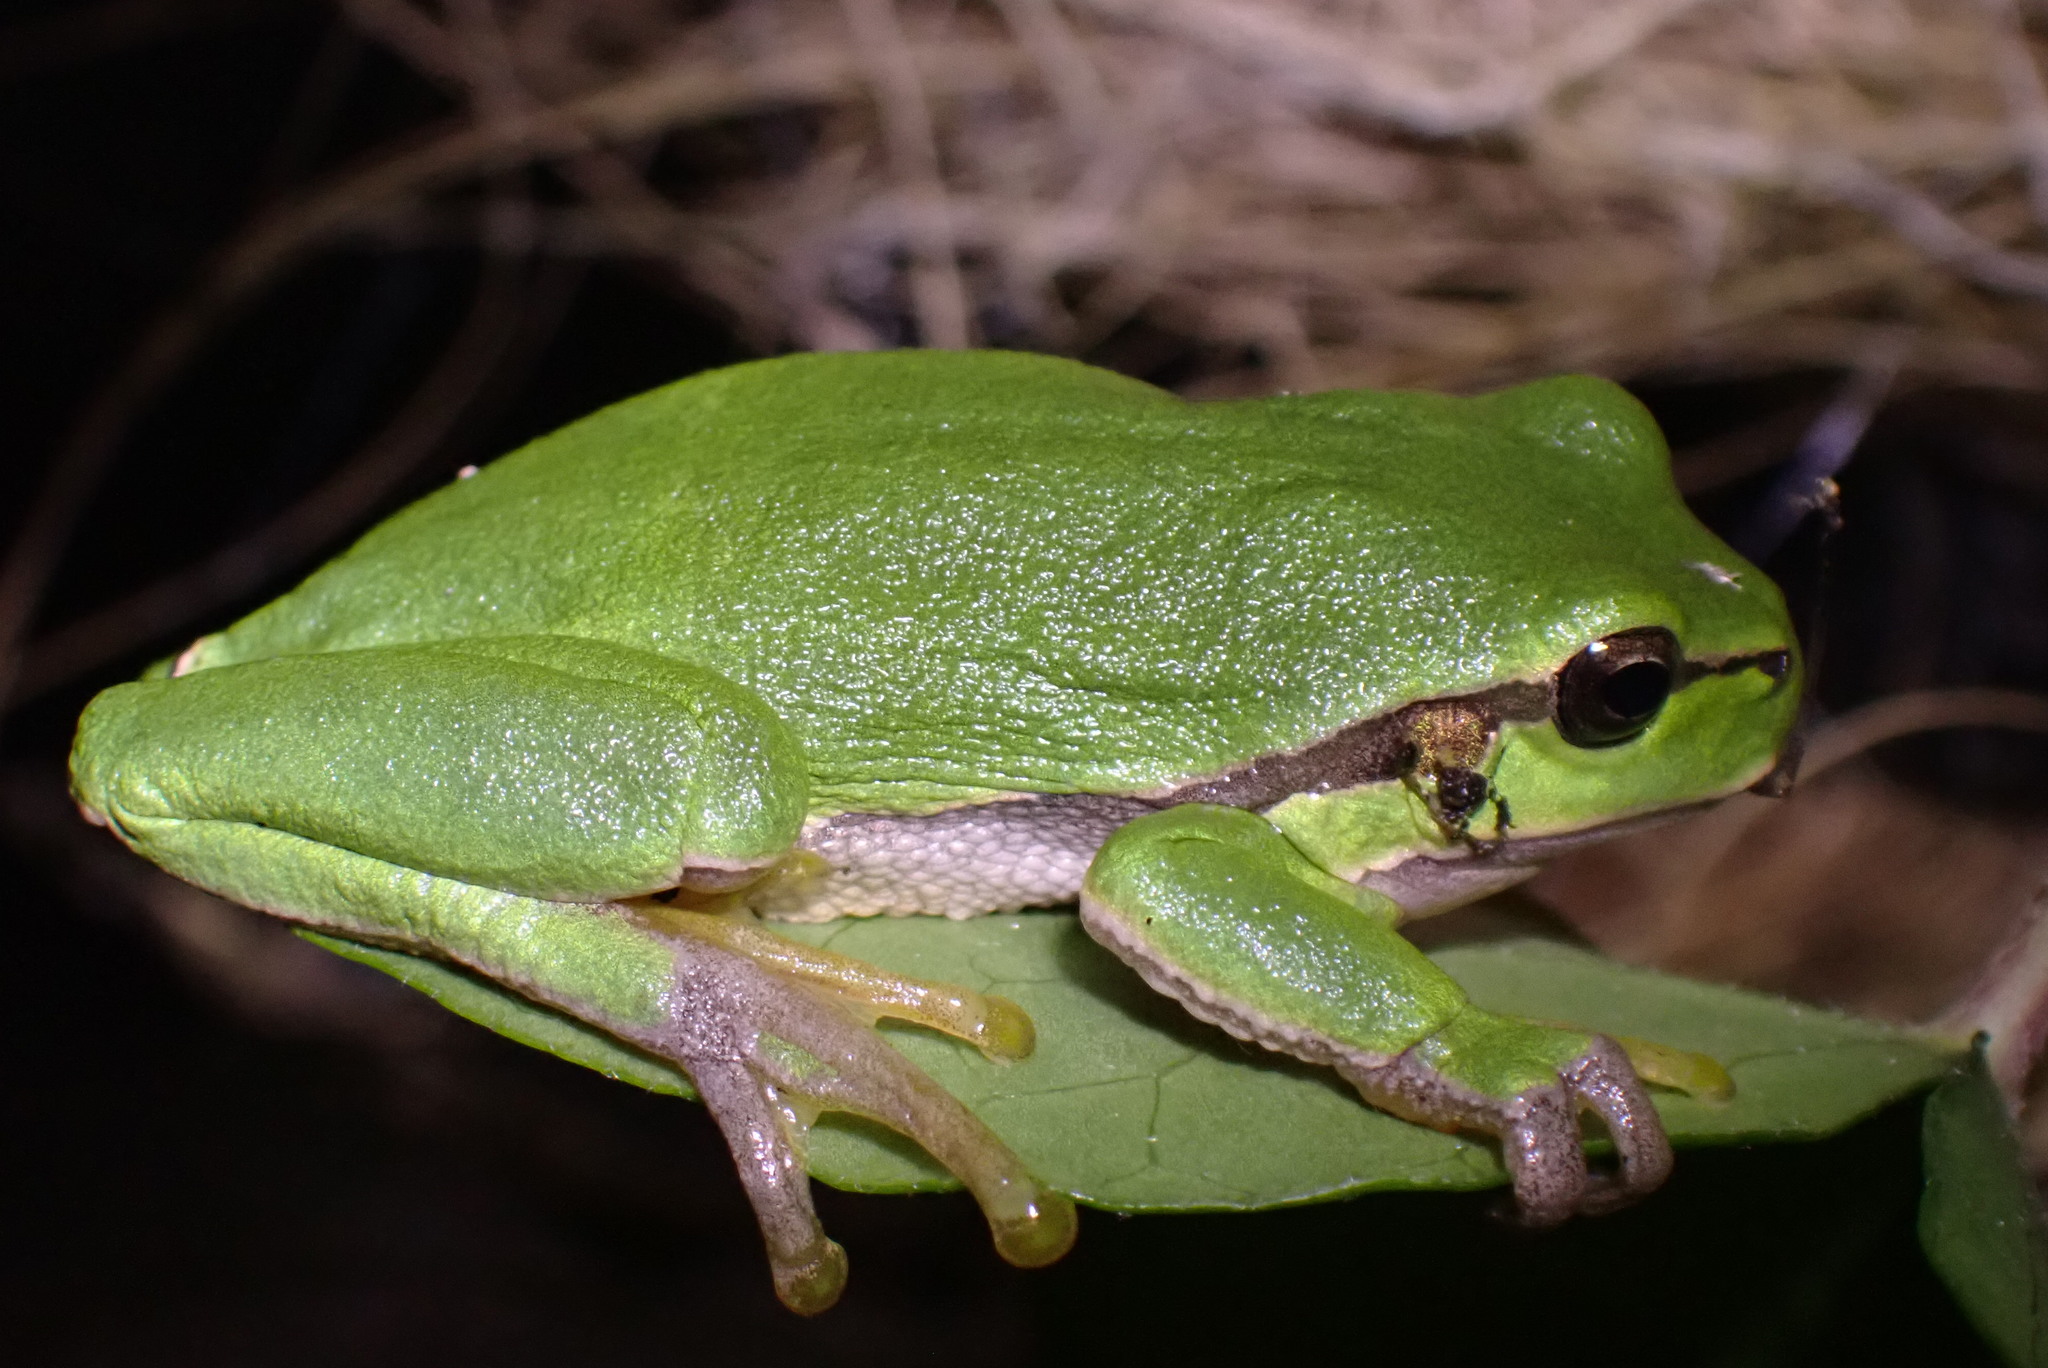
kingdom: Animalia
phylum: Chordata
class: Amphibia
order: Anura
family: Hylidae
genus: Hyla
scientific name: Hyla arborea
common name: Common tree frog
